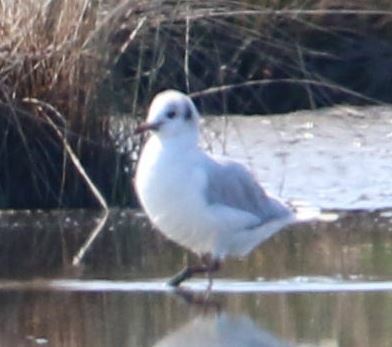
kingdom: Animalia
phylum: Chordata
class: Aves
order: Charadriiformes
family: Laridae
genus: Chroicocephalus
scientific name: Chroicocephalus ridibundus
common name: Black-headed gull
